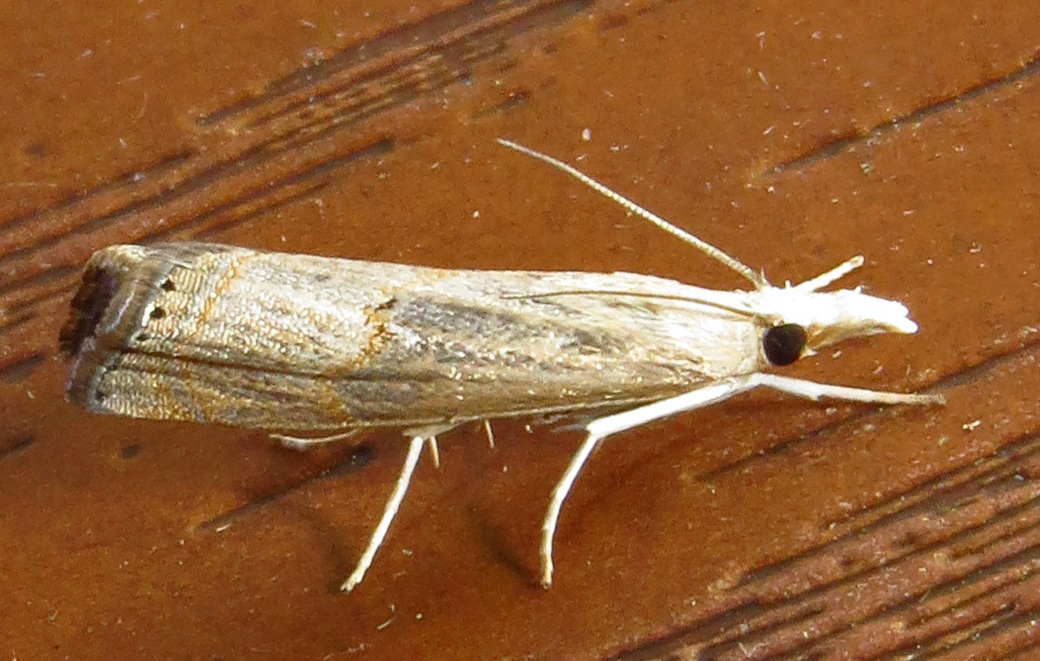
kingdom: Animalia
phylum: Arthropoda
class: Insecta
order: Lepidoptera
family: Crambidae
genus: Parapediasia
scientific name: Parapediasia teterellus
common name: Bluegrass webworm moth
